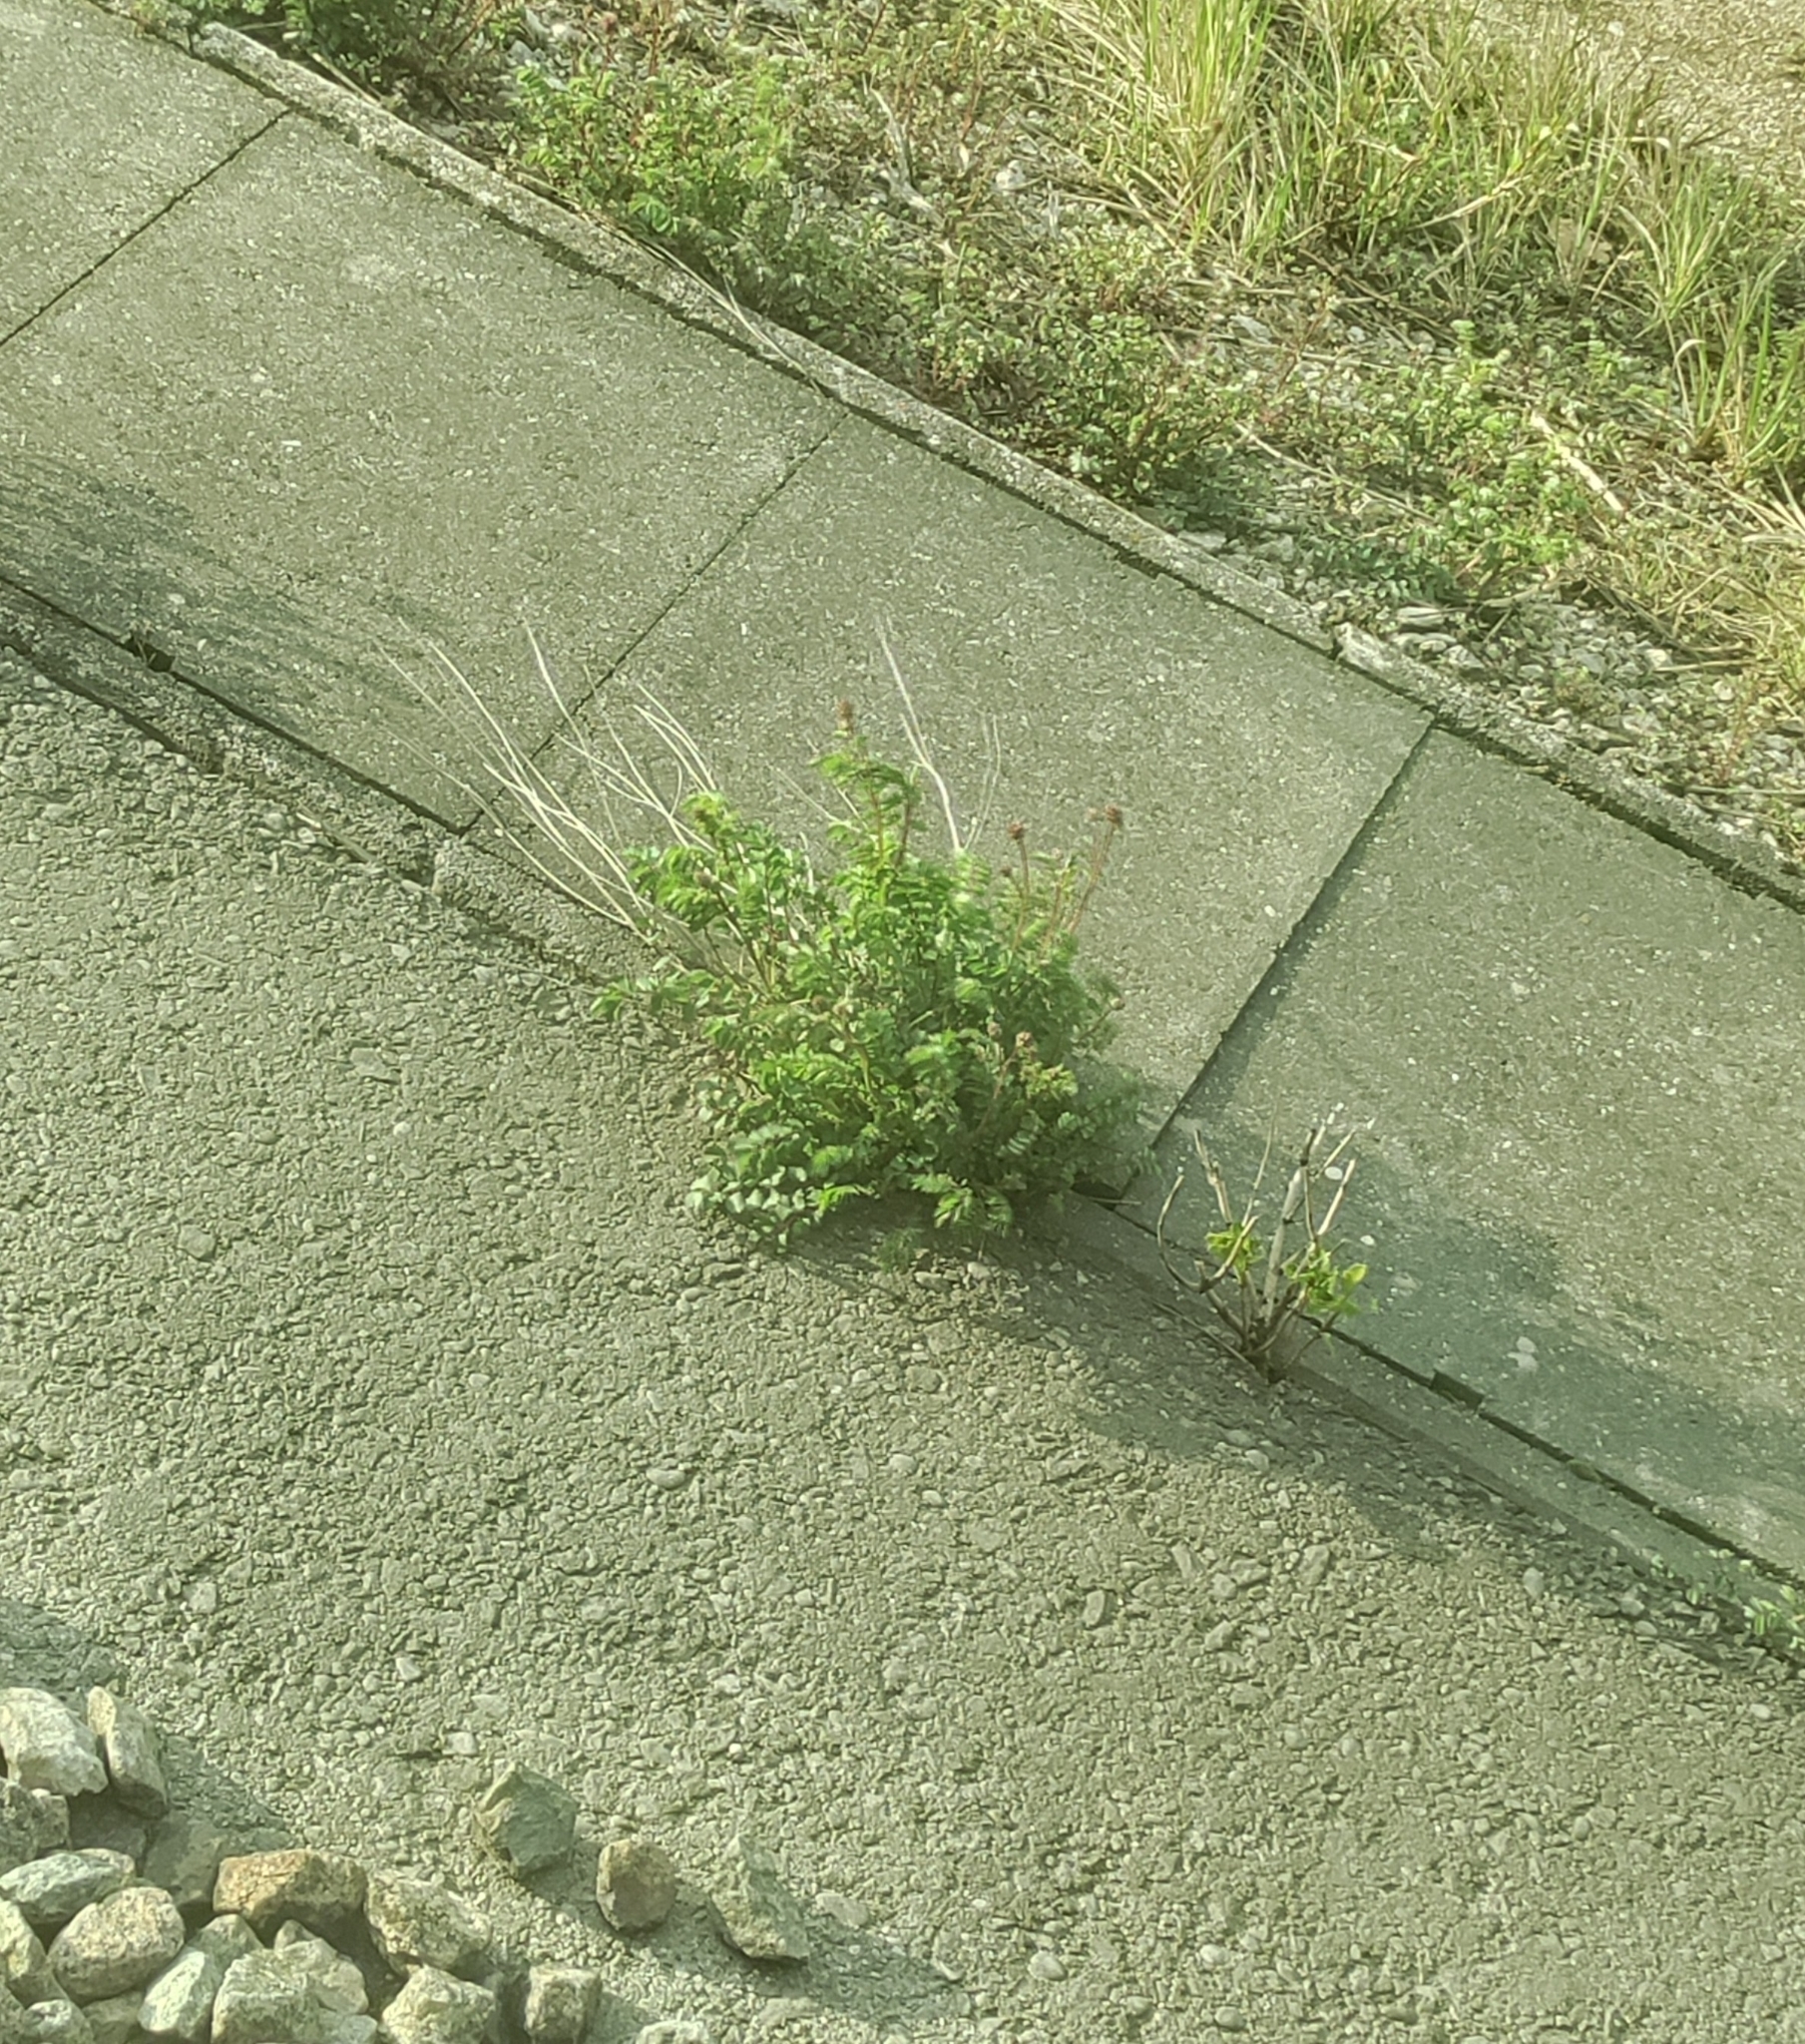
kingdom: Plantae
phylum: Tracheophyta
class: Magnoliopsida
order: Rosales
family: Rosaceae
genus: Poterium
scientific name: Poterium sanguisorba
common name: Salad burnet
